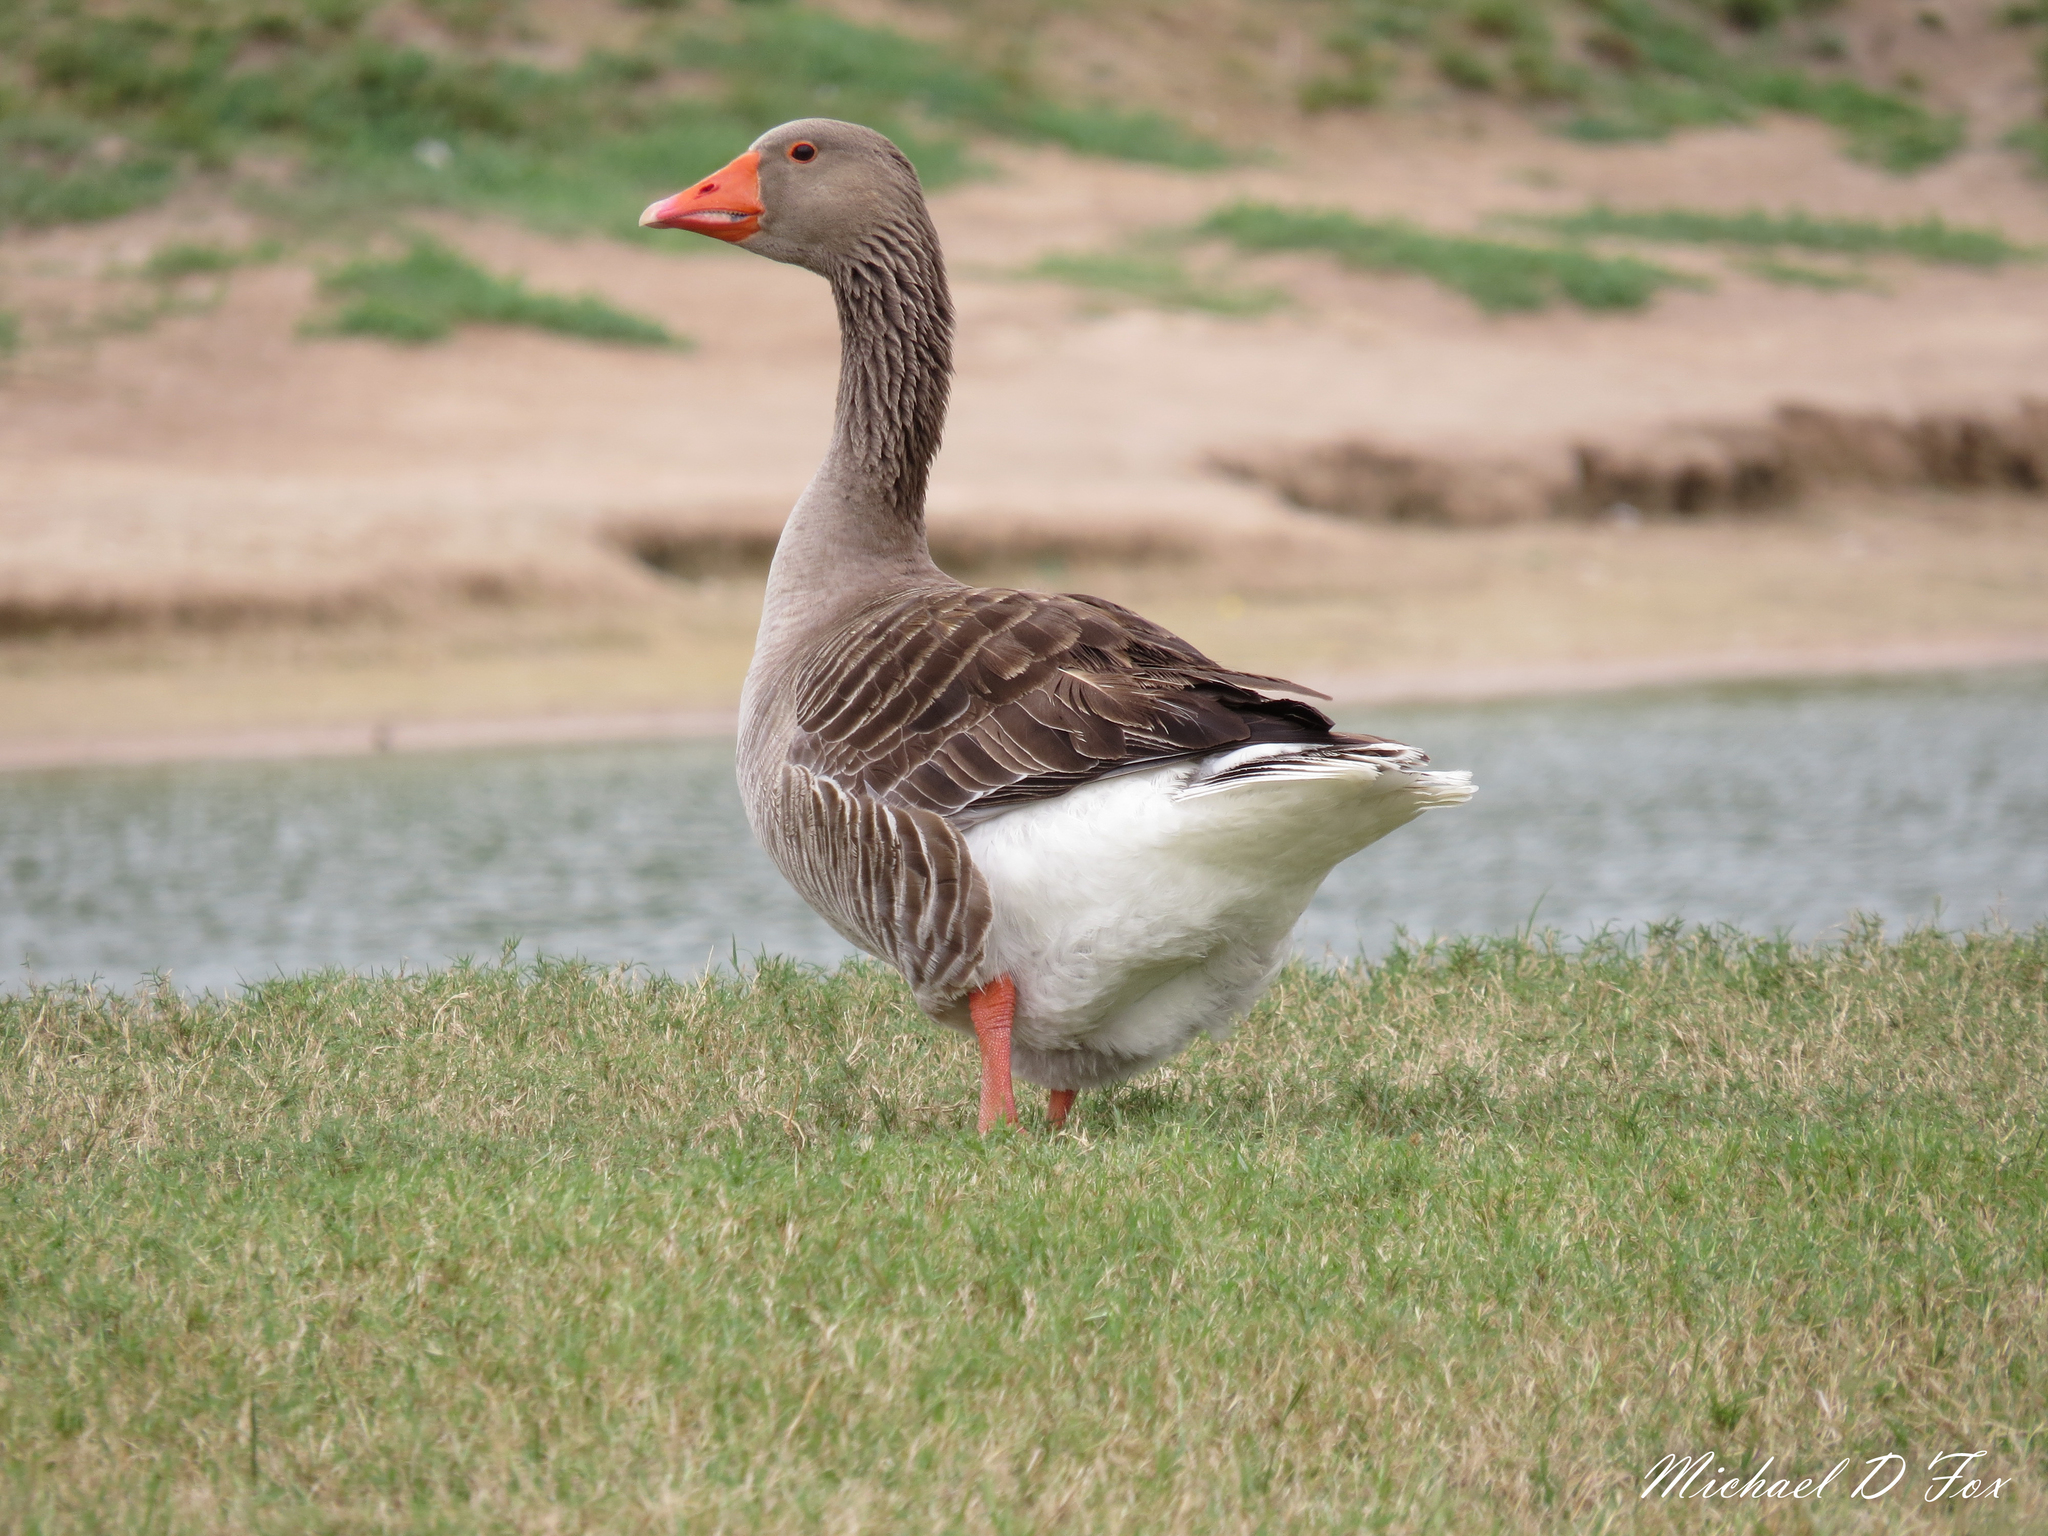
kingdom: Animalia
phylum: Chordata
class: Aves
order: Anseriformes
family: Anatidae
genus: Anser
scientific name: Anser anser
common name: Greylag goose
